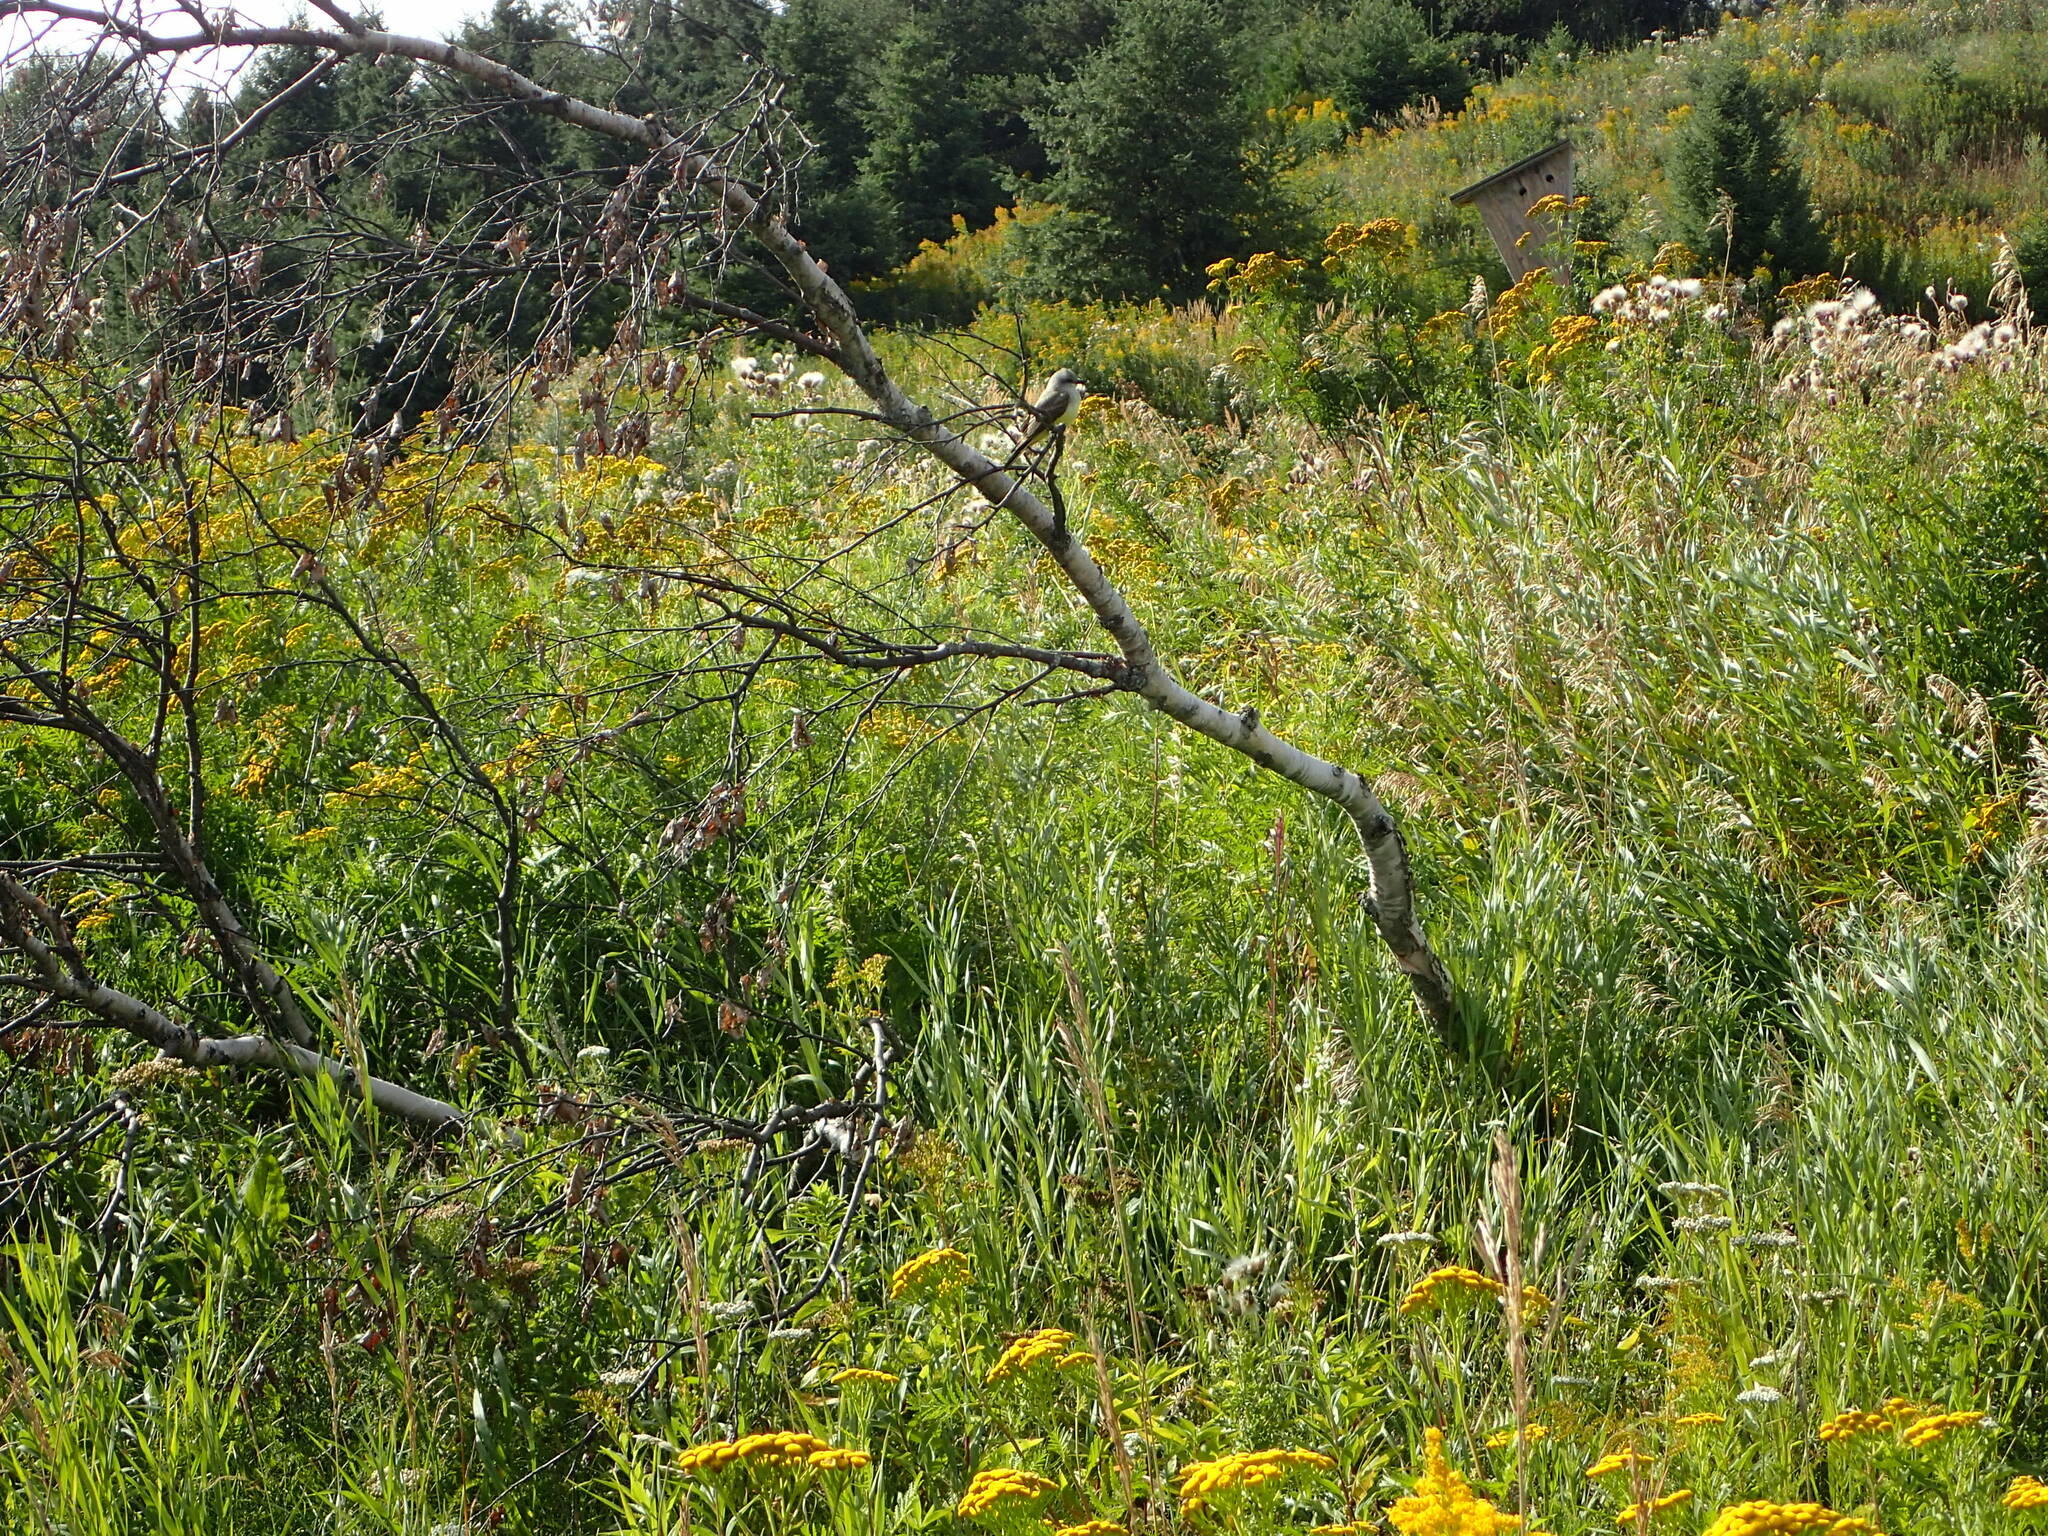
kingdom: Animalia
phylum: Chordata
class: Aves
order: Passeriformes
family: Tyrannidae
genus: Tyrannus
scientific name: Tyrannus verticalis
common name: Western kingbird
